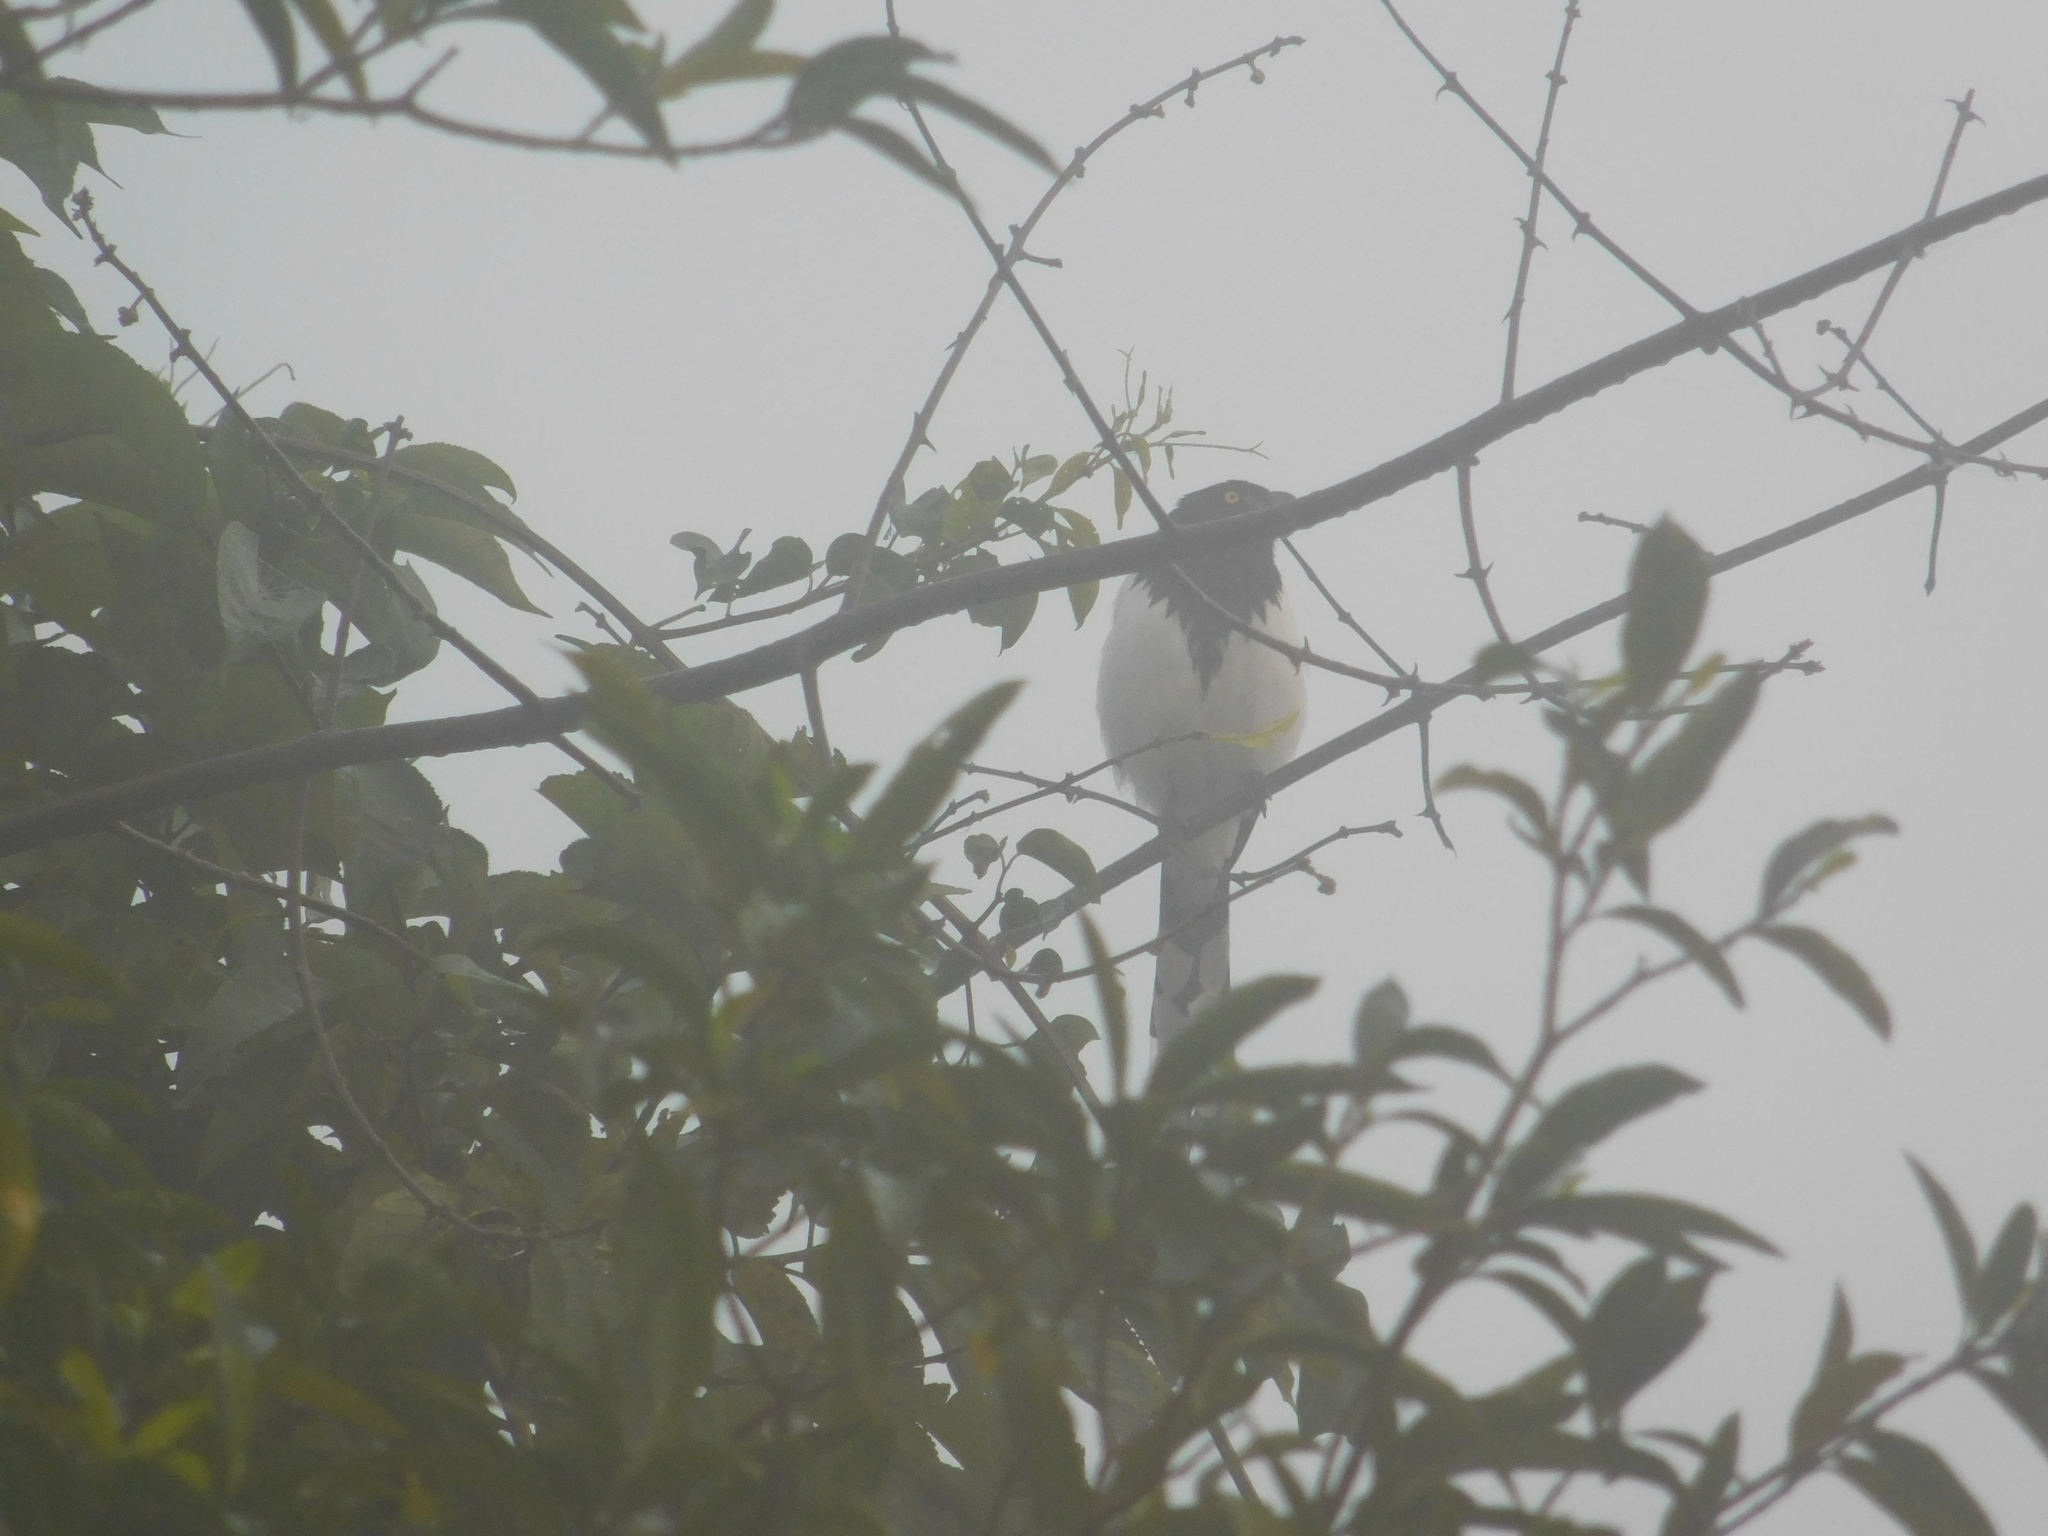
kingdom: Animalia
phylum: Chordata
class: Aves
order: Passeriformes
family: Thraupidae
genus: Cissopis
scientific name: Cissopis leverianus
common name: Magpie tanager
